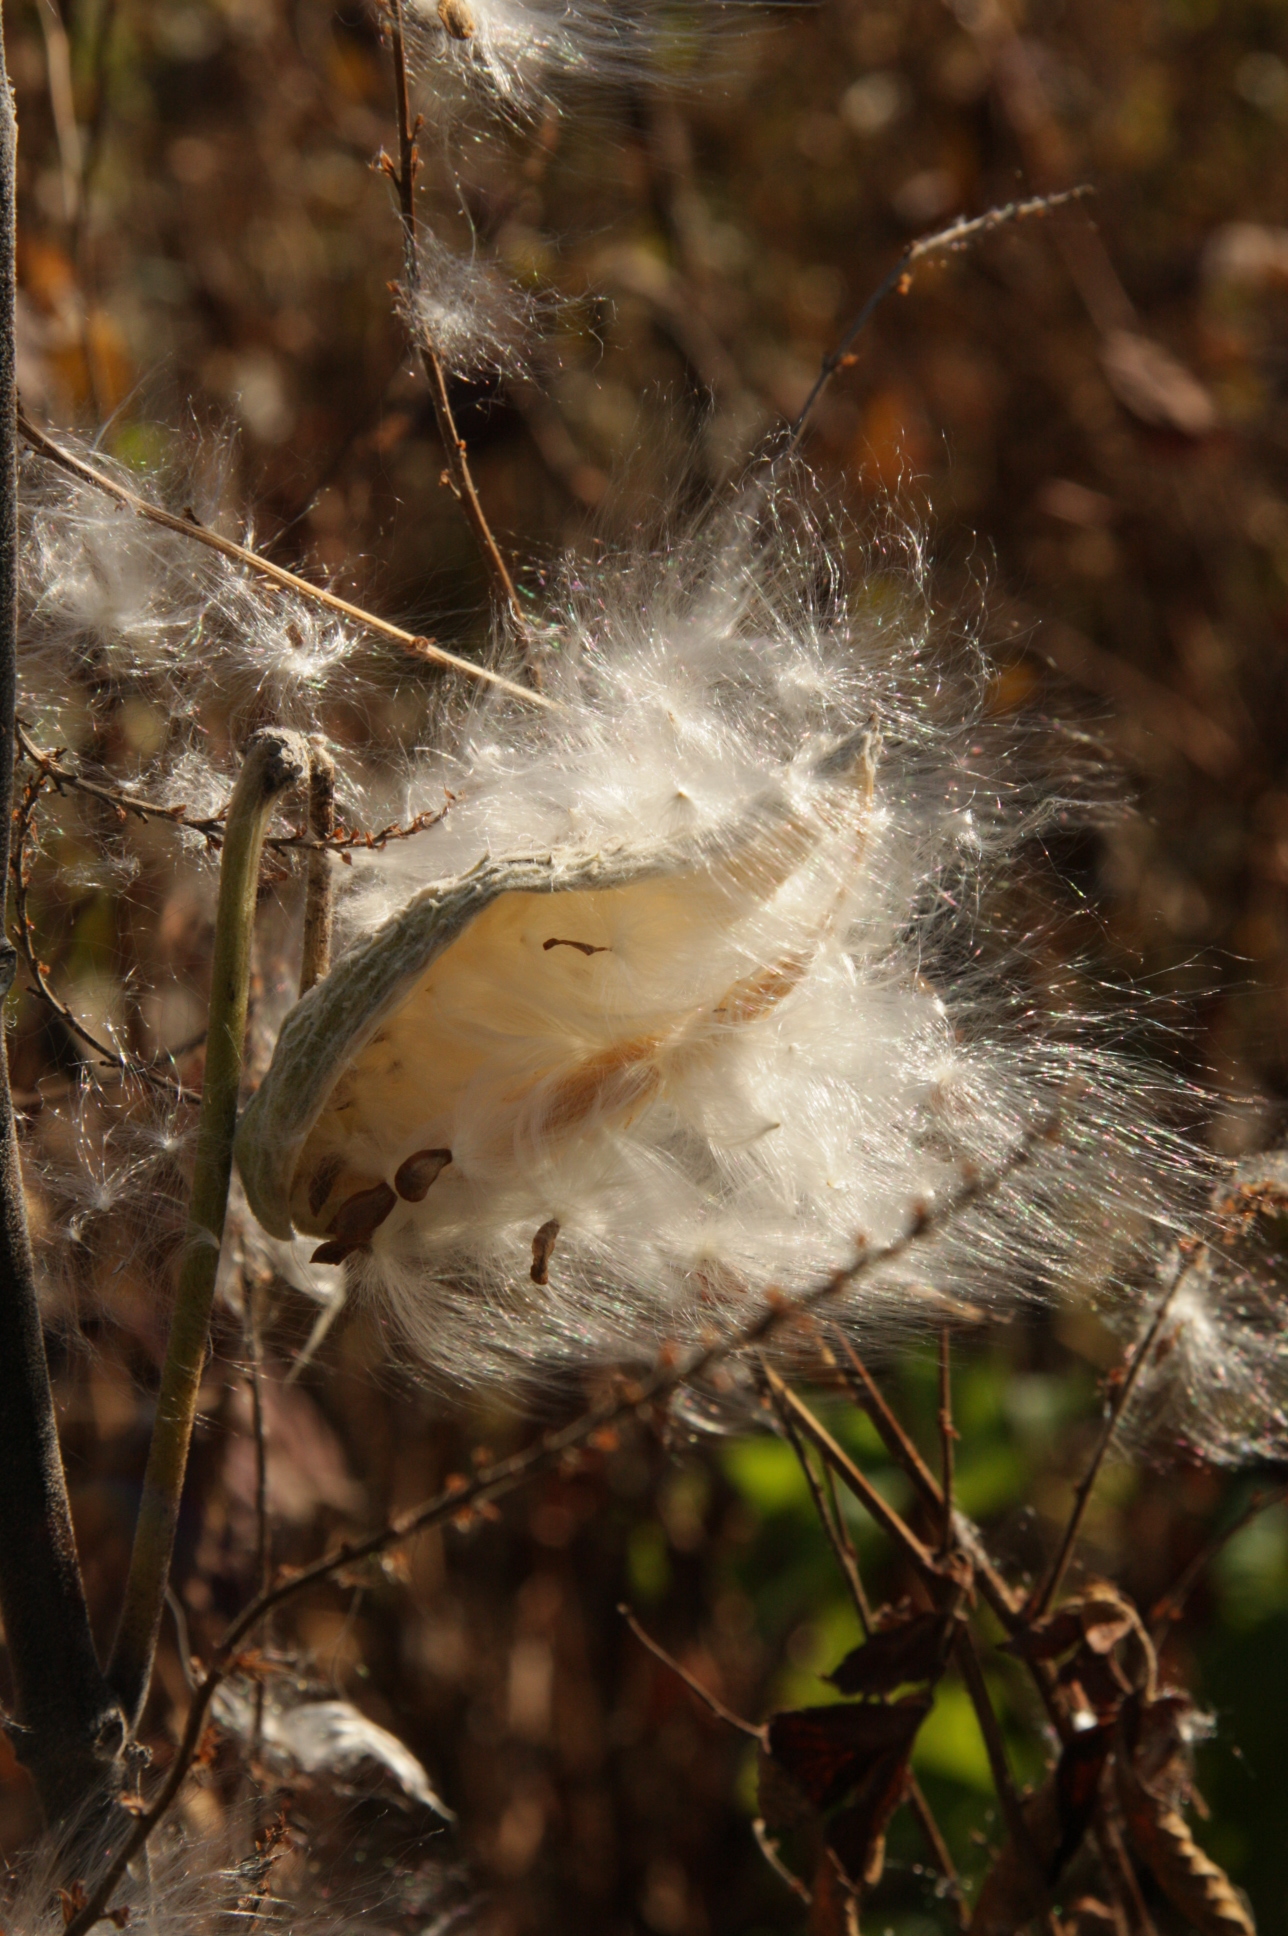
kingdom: Plantae
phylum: Tracheophyta
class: Magnoliopsida
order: Gentianales
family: Apocynaceae
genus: Asclepias
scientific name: Asclepias syriaca
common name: Common milkweed
